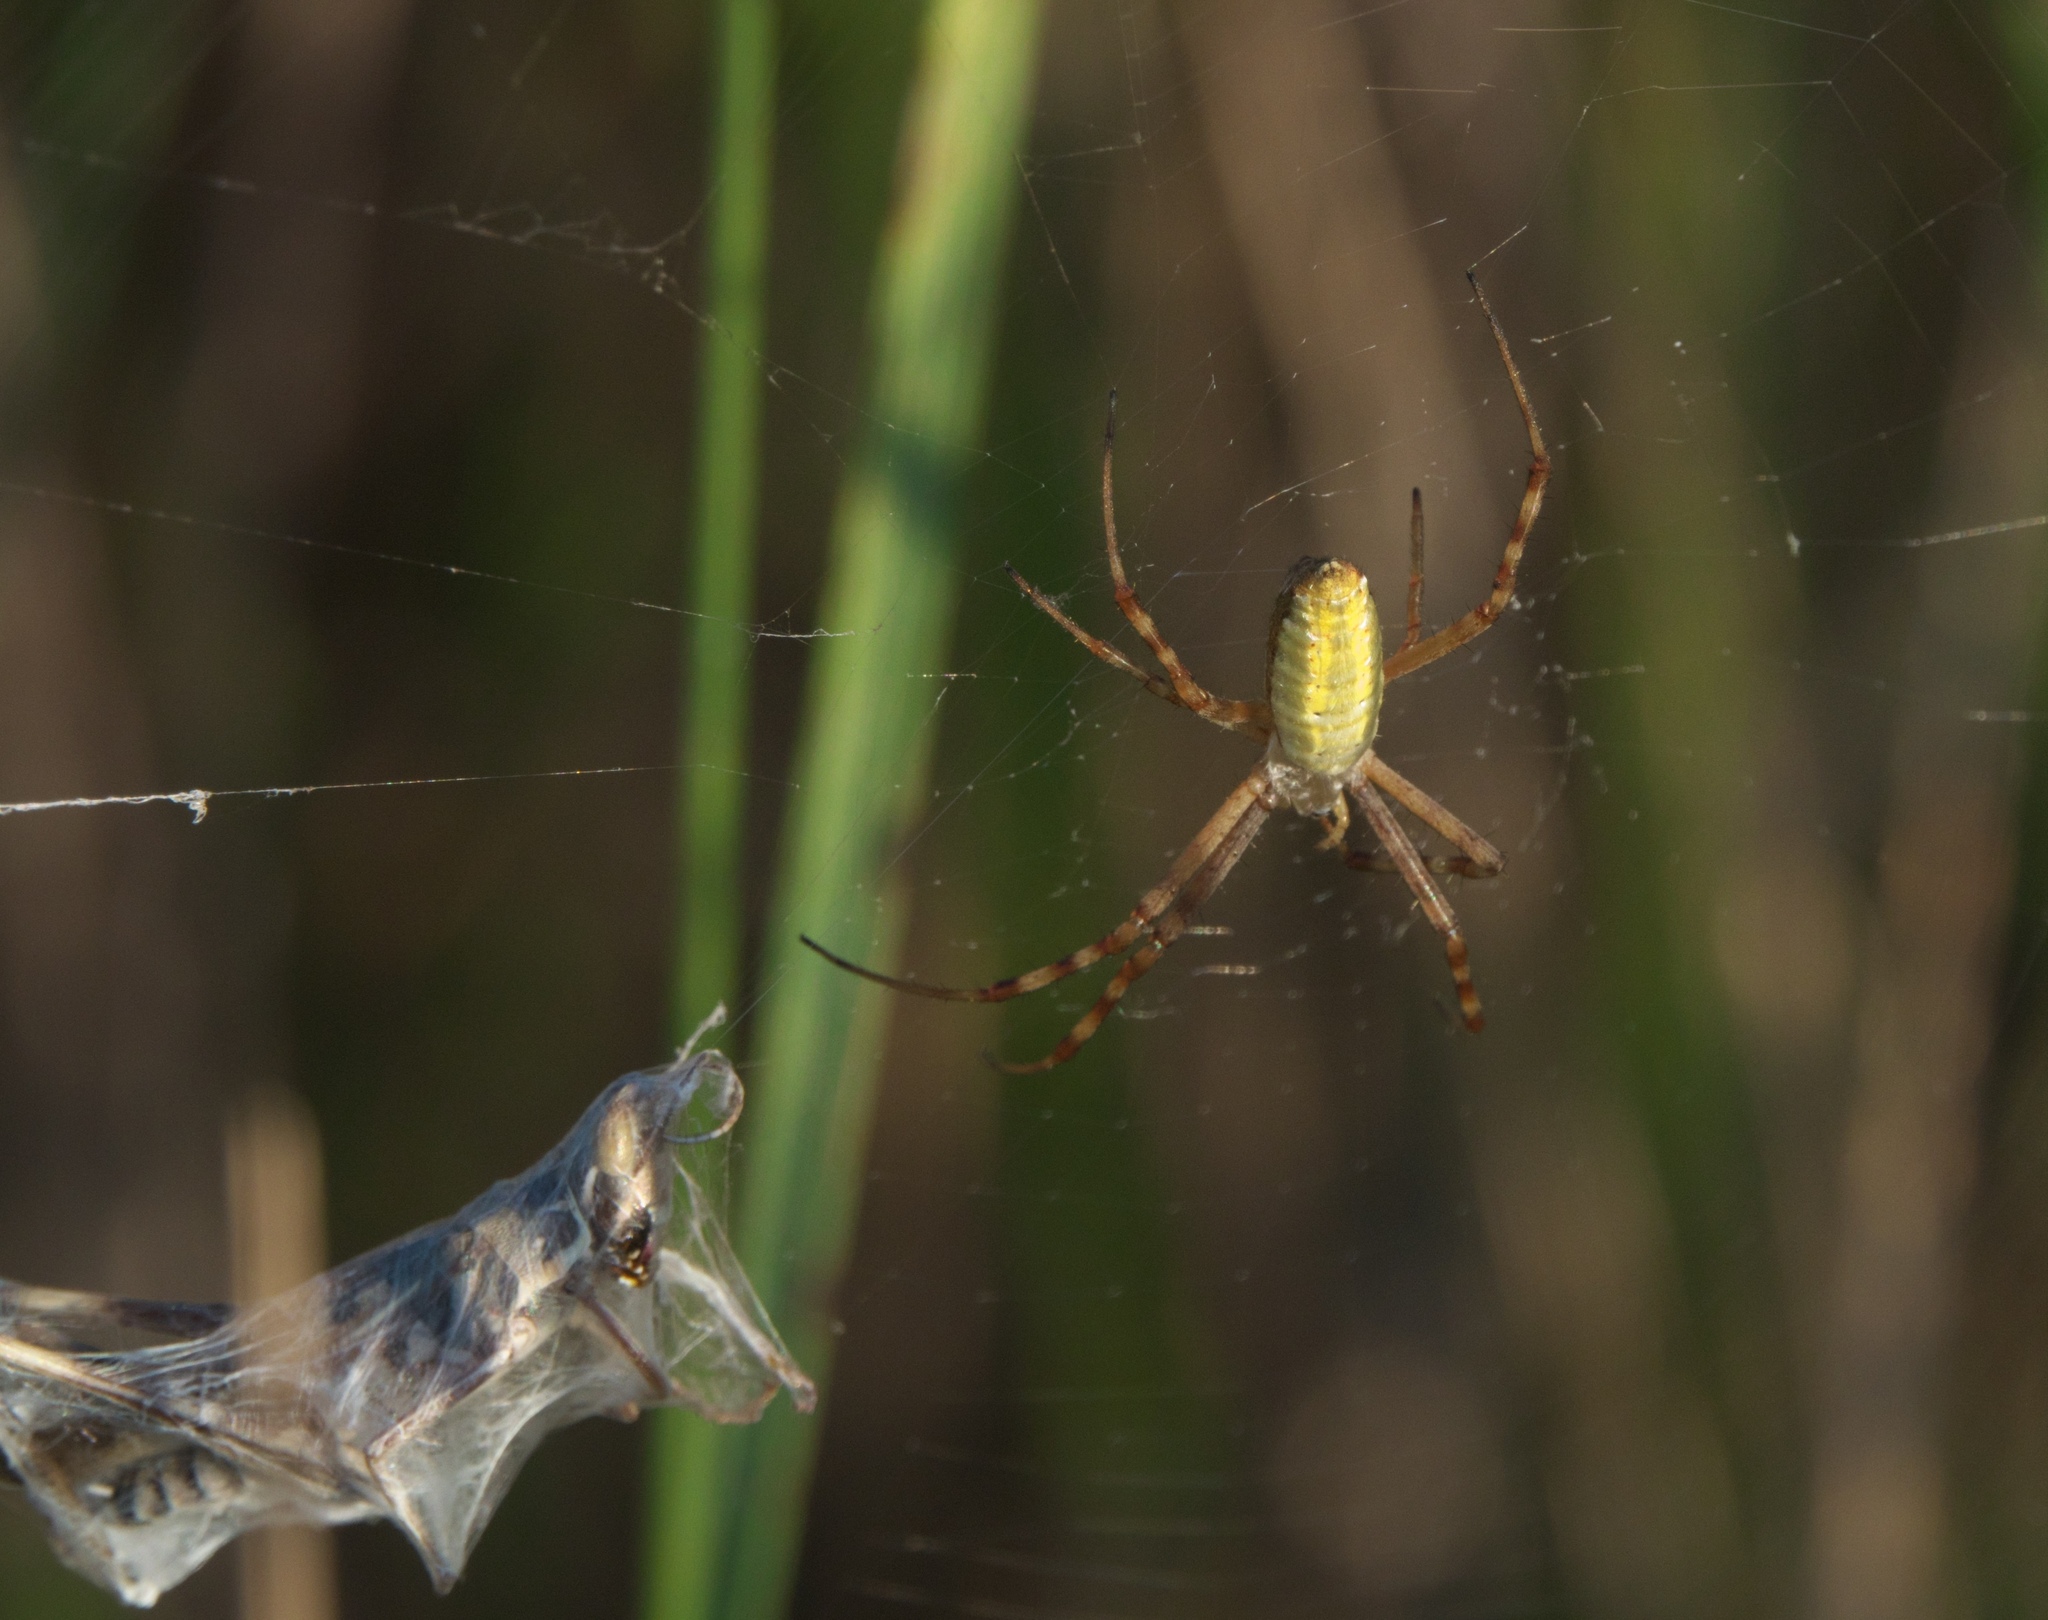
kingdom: Animalia
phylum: Arthropoda
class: Arachnida
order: Araneae
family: Araneidae
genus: Argiope
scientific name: Argiope trifasciata
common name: Banded garden spider
